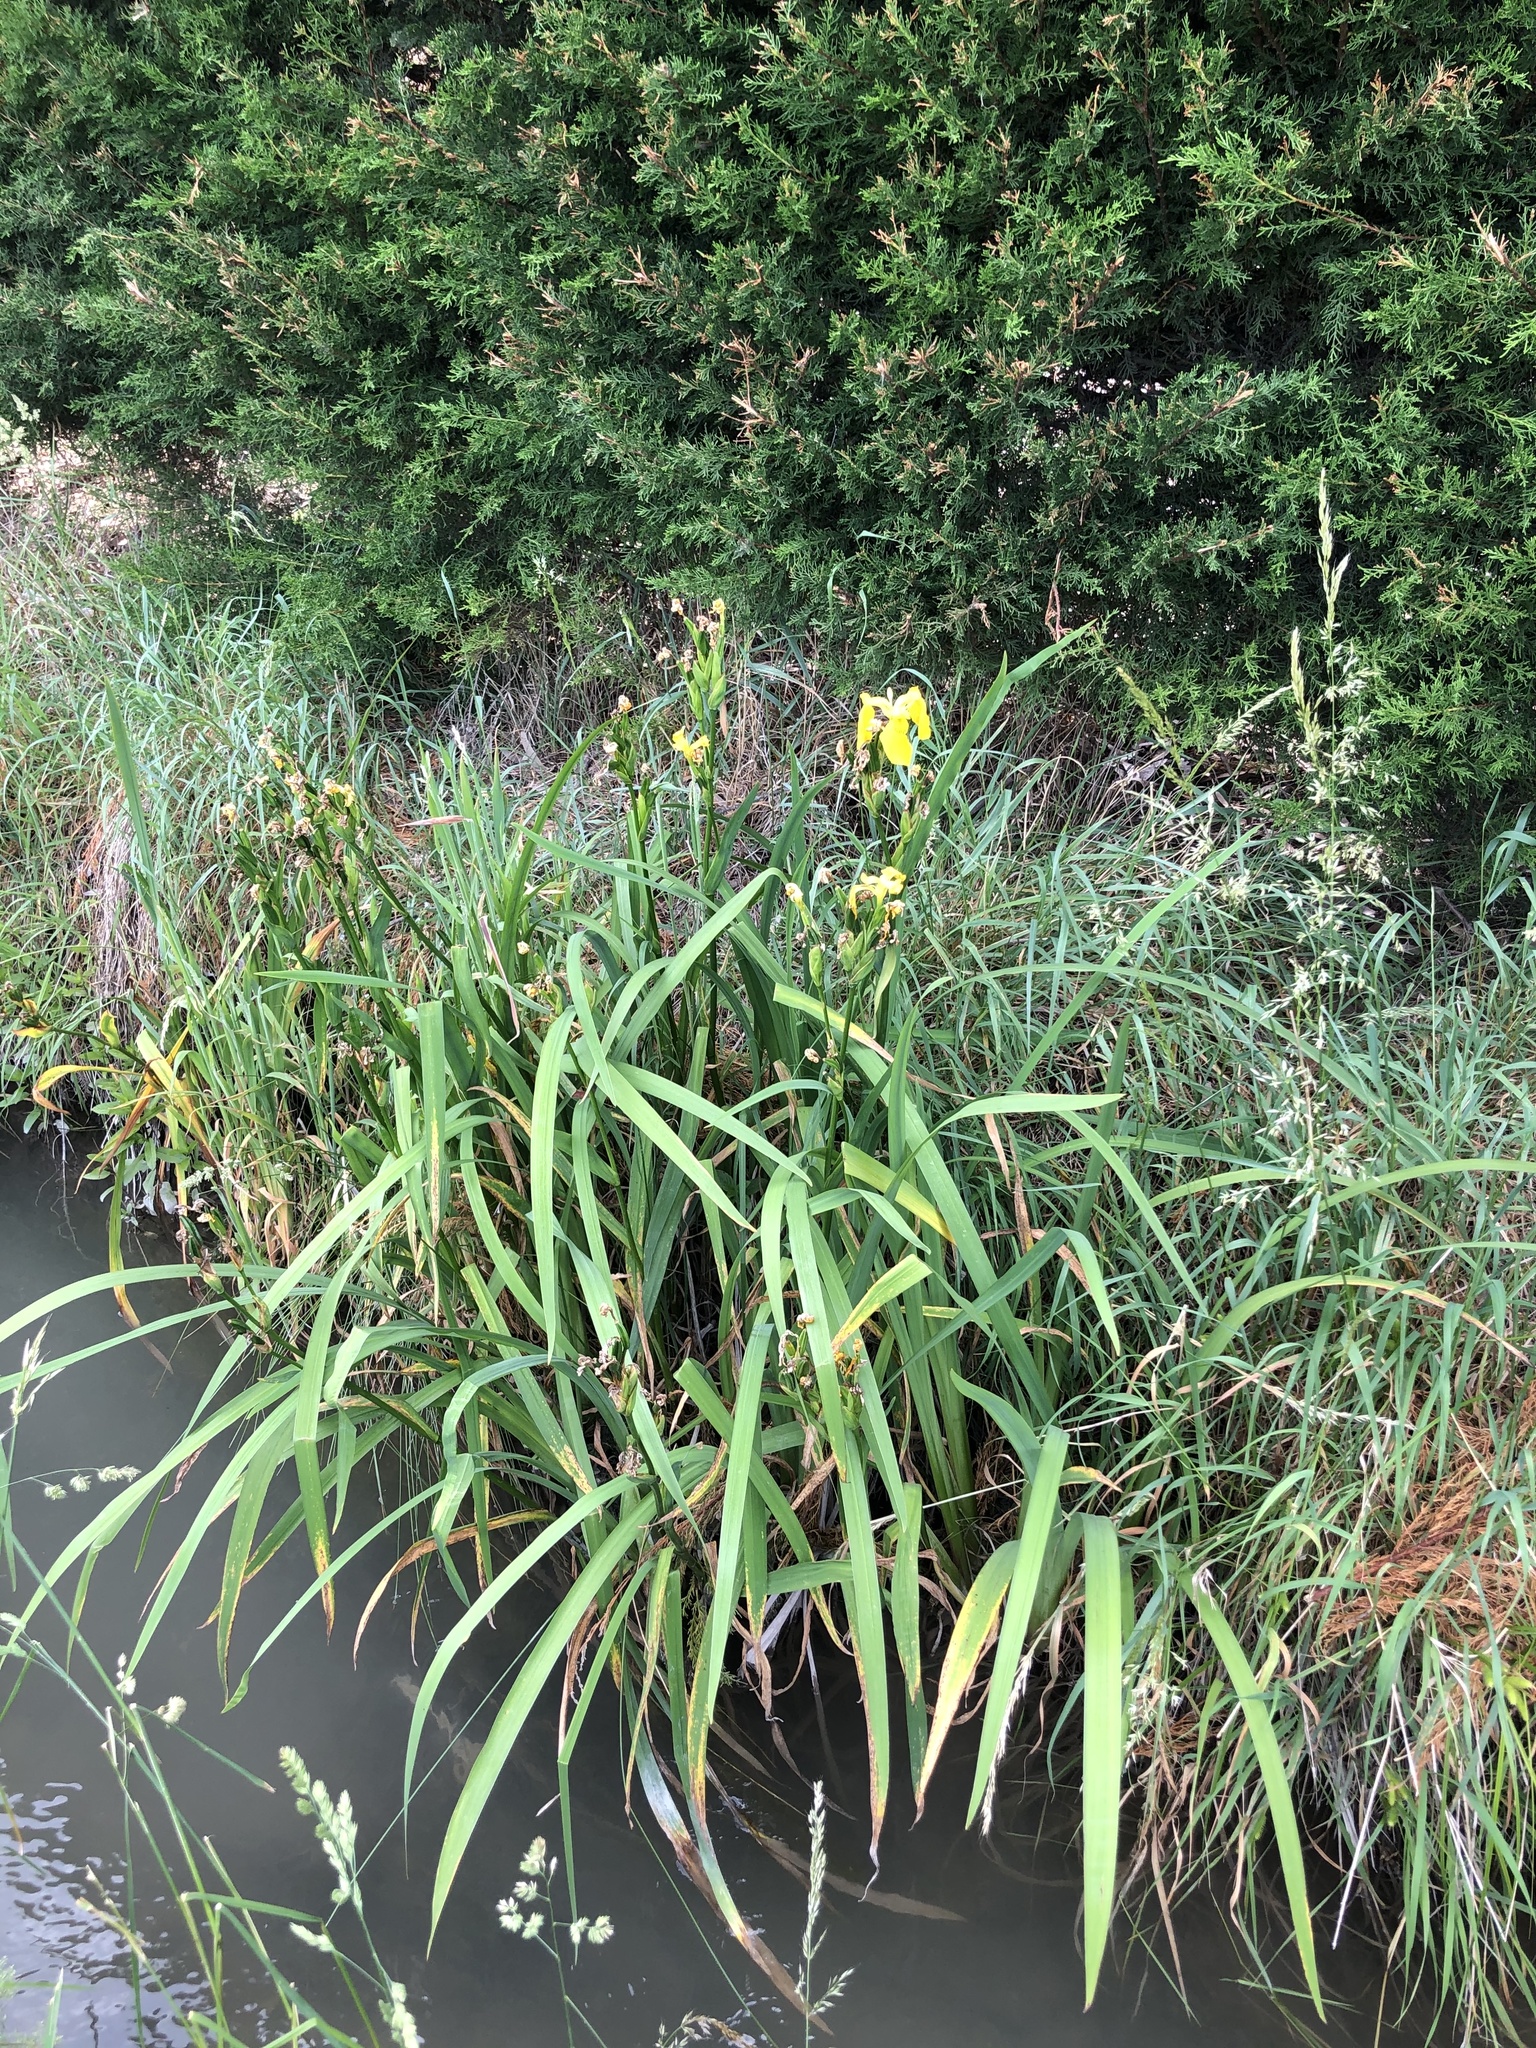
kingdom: Plantae
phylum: Tracheophyta
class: Liliopsida
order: Asparagales
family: Iridaceae
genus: Iris
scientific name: Iris pseudacorus
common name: Yellow flag
